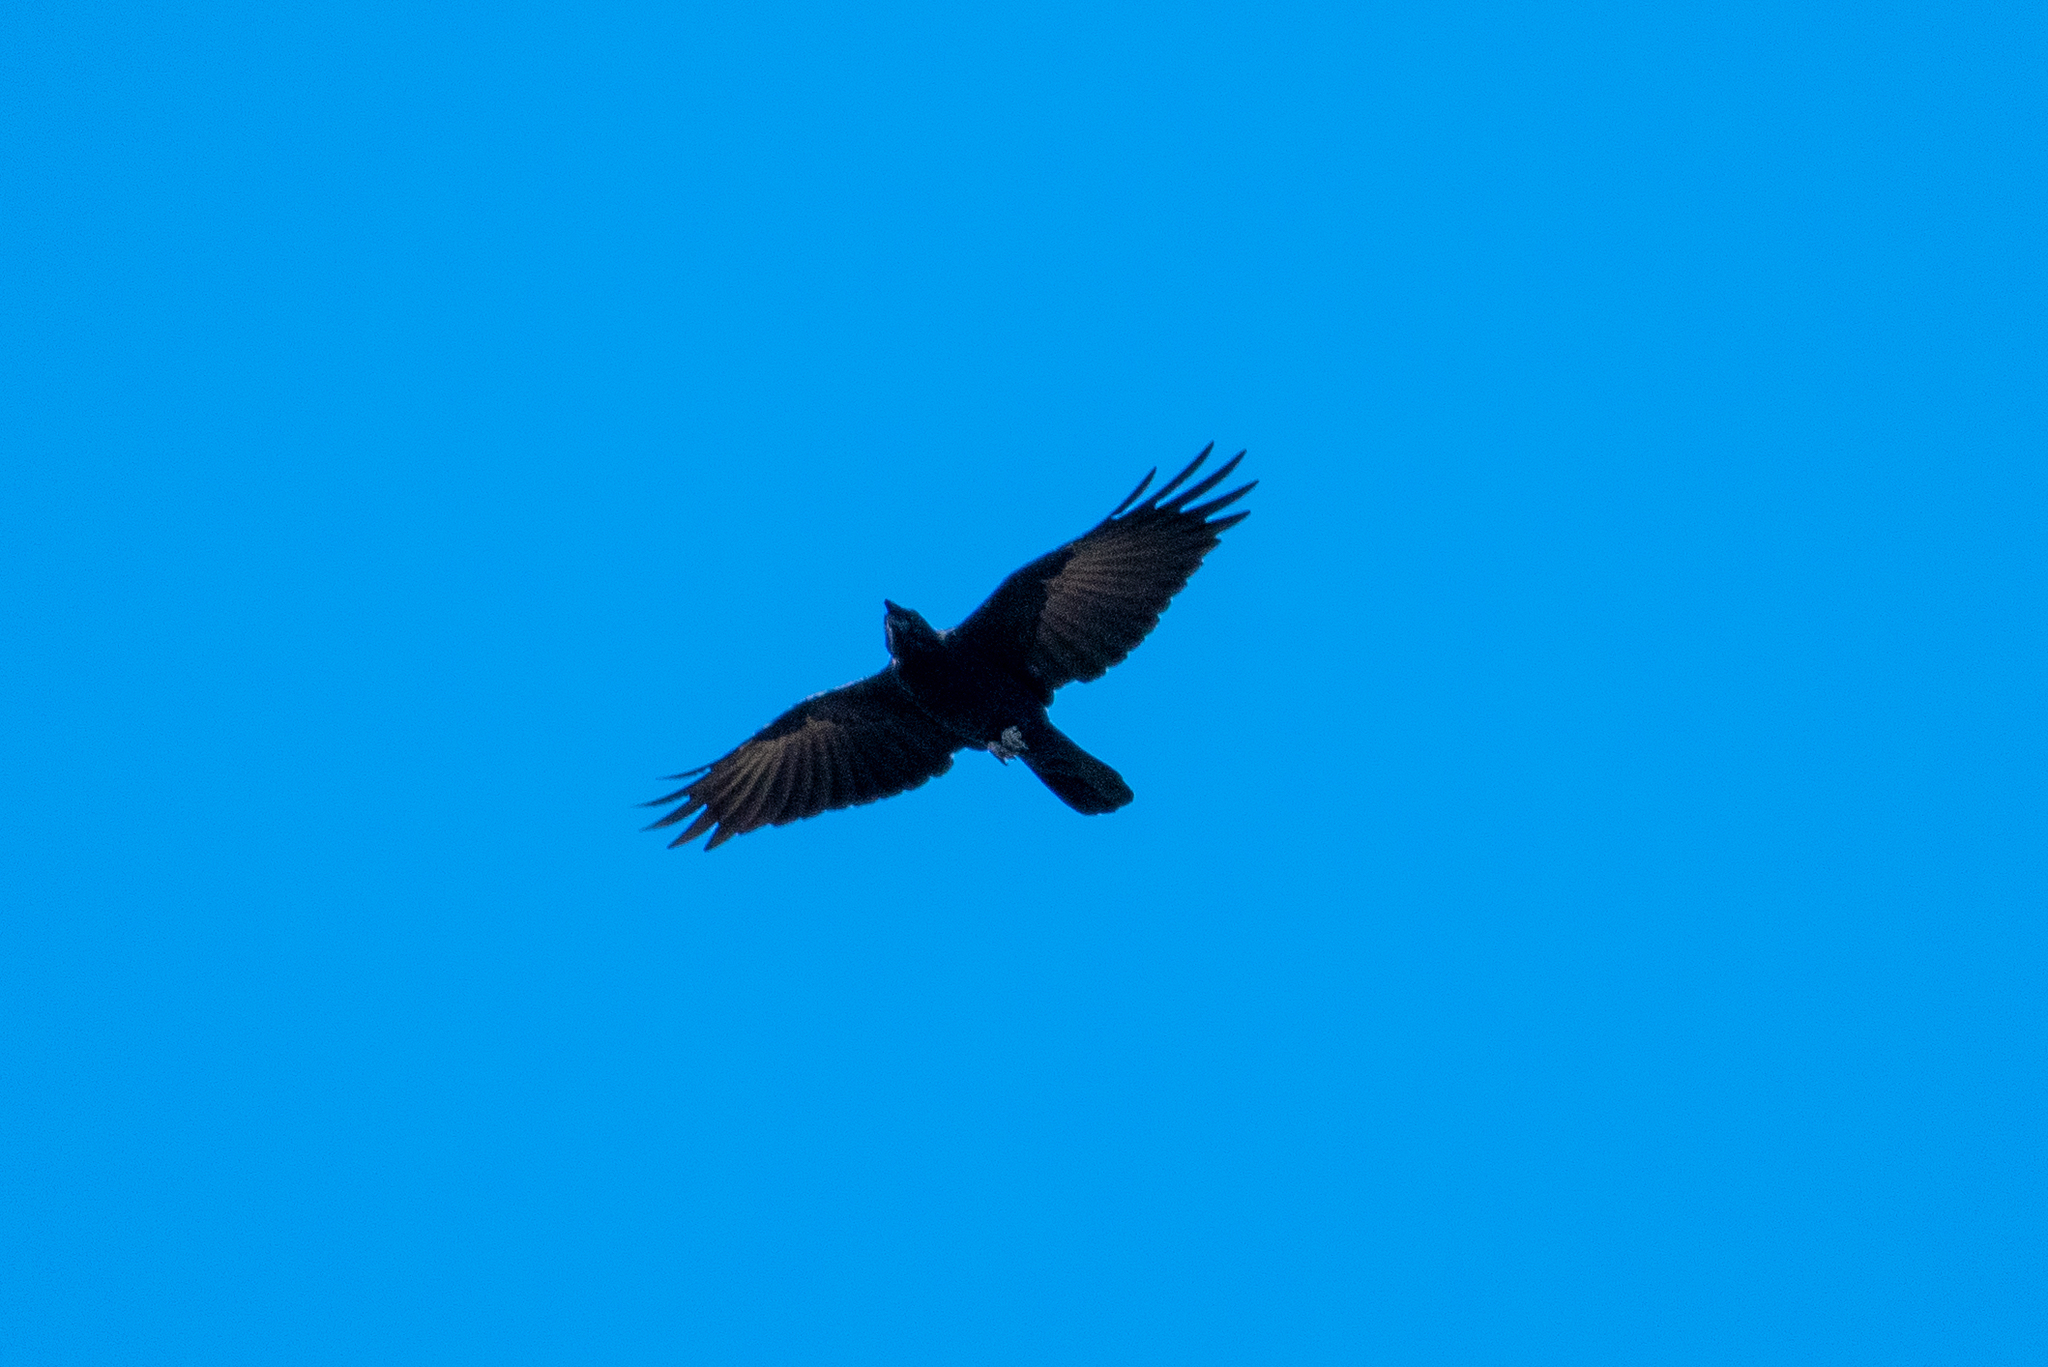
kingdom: Animalia
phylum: Chordata
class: Aves
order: Passeriformes
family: Corvidae
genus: Corvus
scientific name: Corvus brachyrhynchos
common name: American crow
